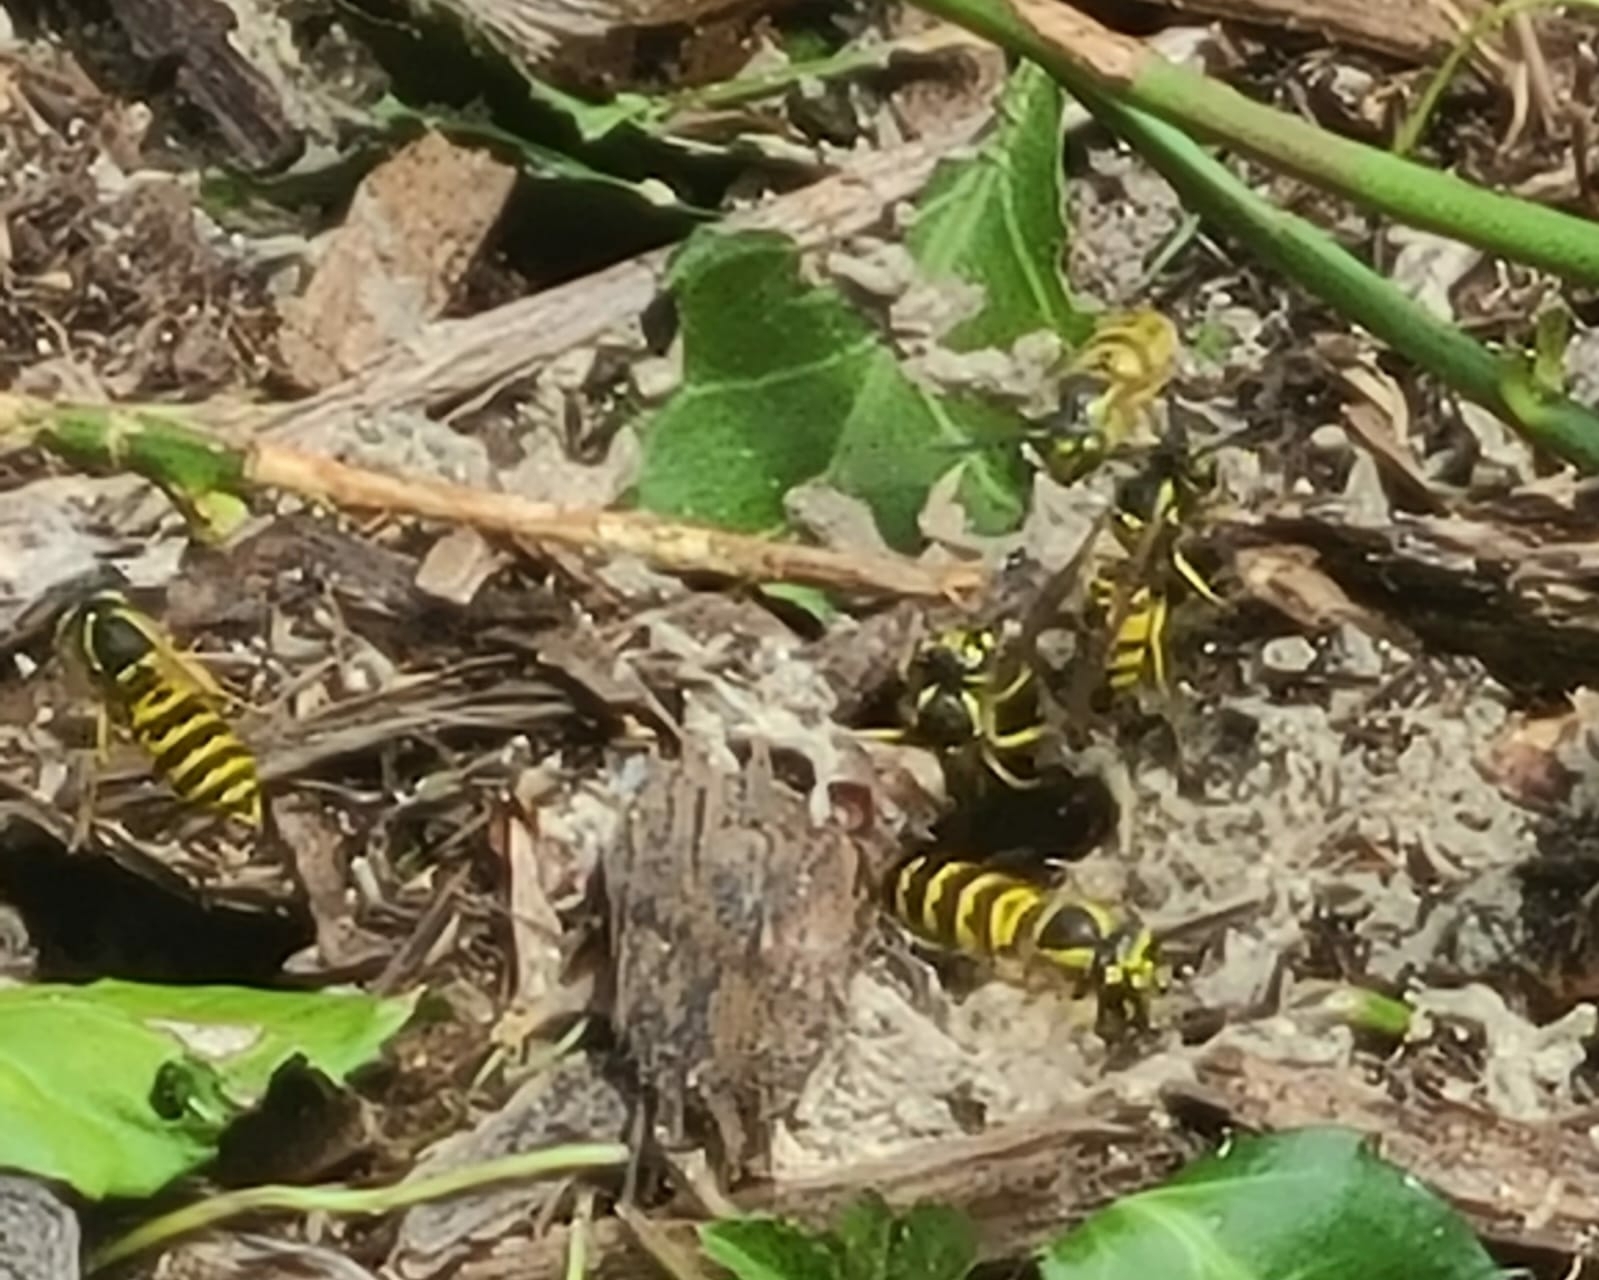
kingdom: Animalia
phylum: Arthropoda
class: Insecta
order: Hymenoptera
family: Vespidae
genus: Vespula
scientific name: Vespula maculifrons
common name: Eastern yellowjacket
